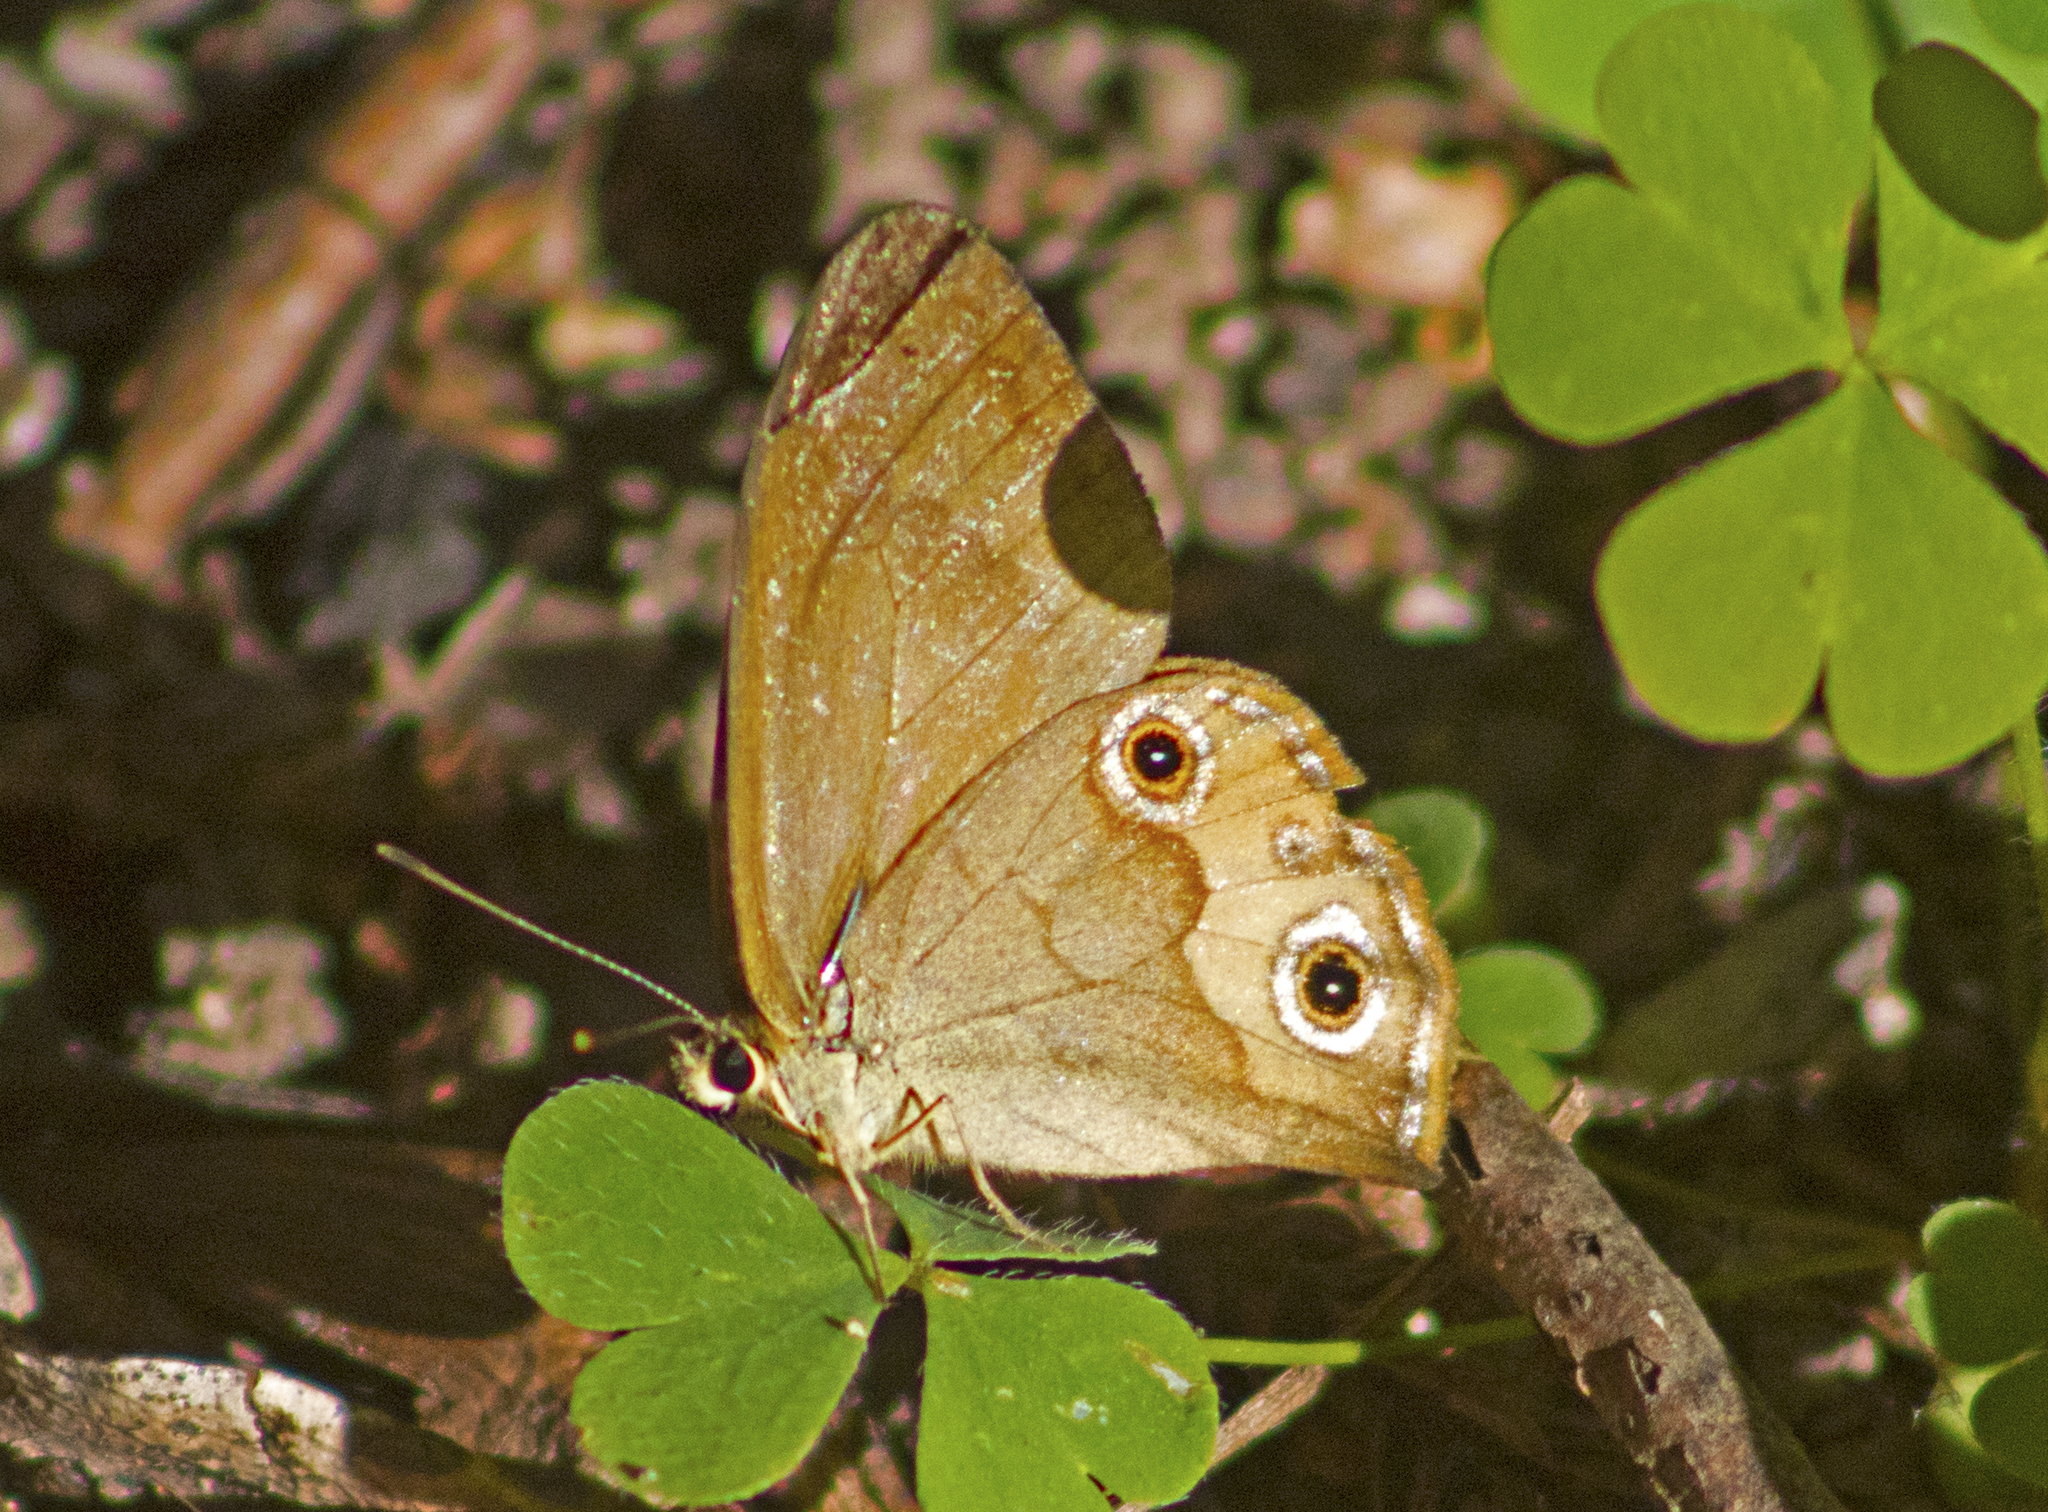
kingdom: Animalia
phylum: Arthropoda
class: Insecta
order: Lepidoptera
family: Nymphalidae
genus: Hypocysta
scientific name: Hypocysta metirius
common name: Brown ringlet
